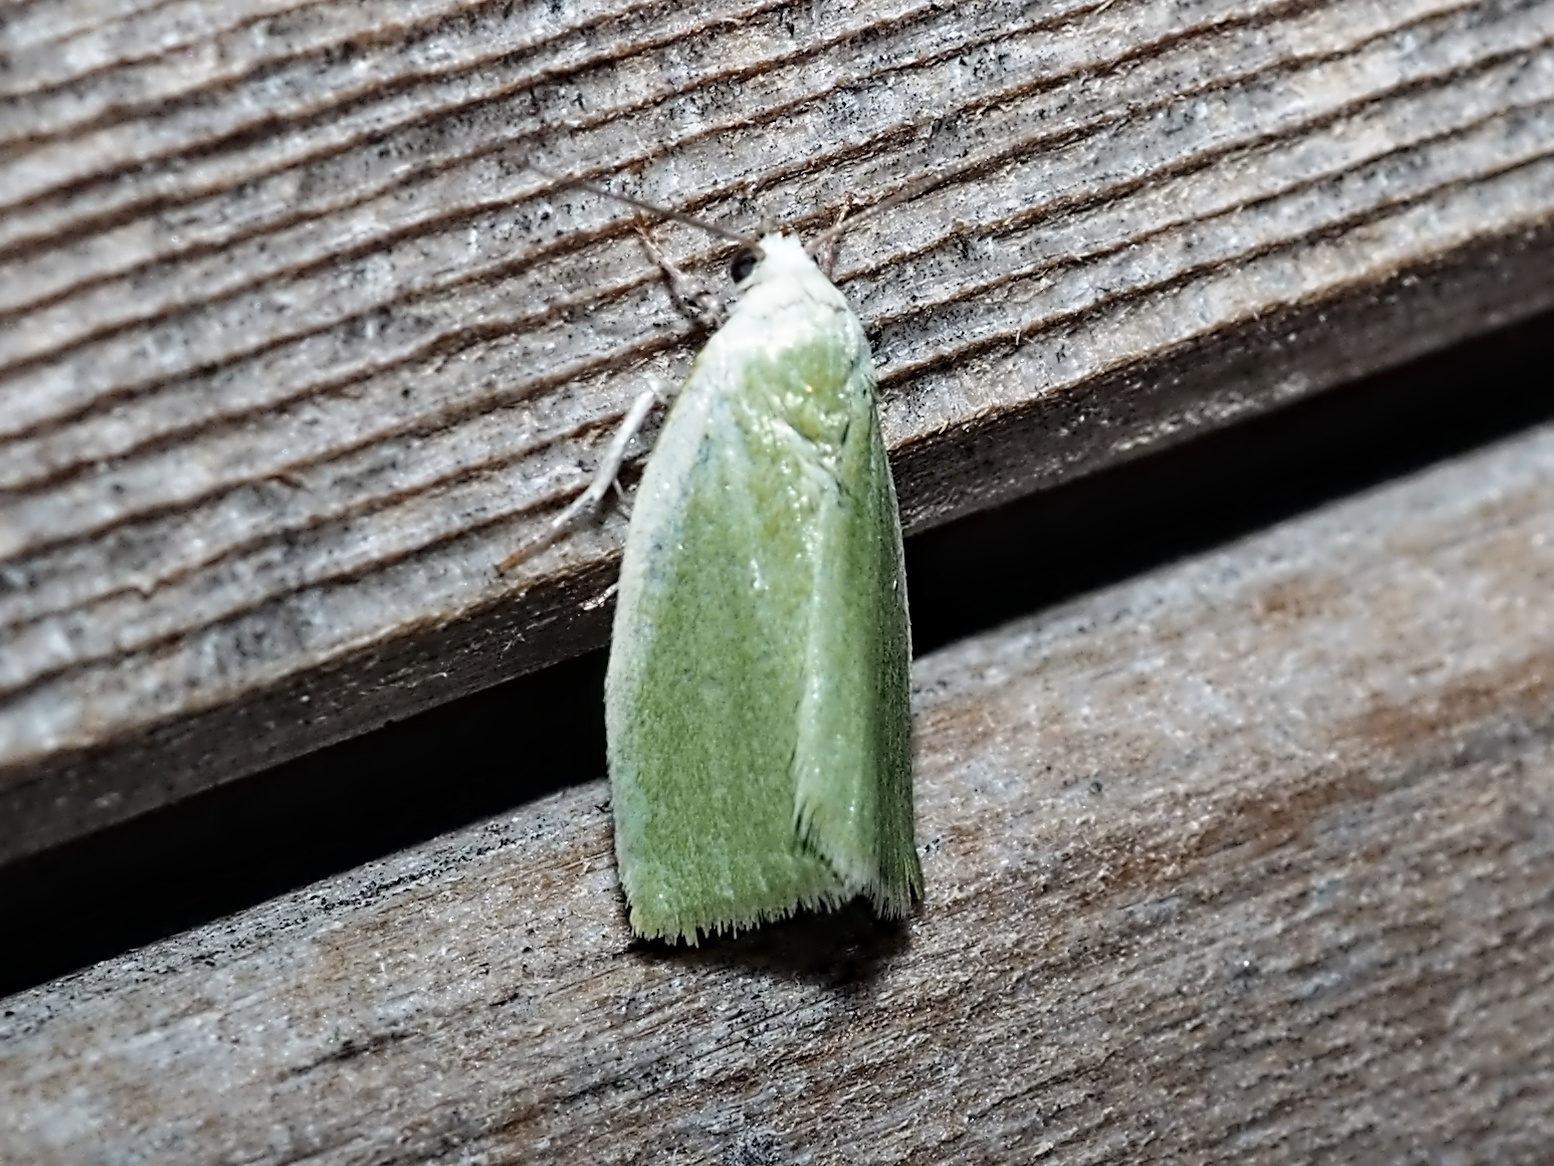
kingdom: Animalia
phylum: Arthropoda
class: Insecta
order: Lepidoptera
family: Nolidae
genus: Earias
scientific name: Earias clorana
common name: Cream-bordered green pea
